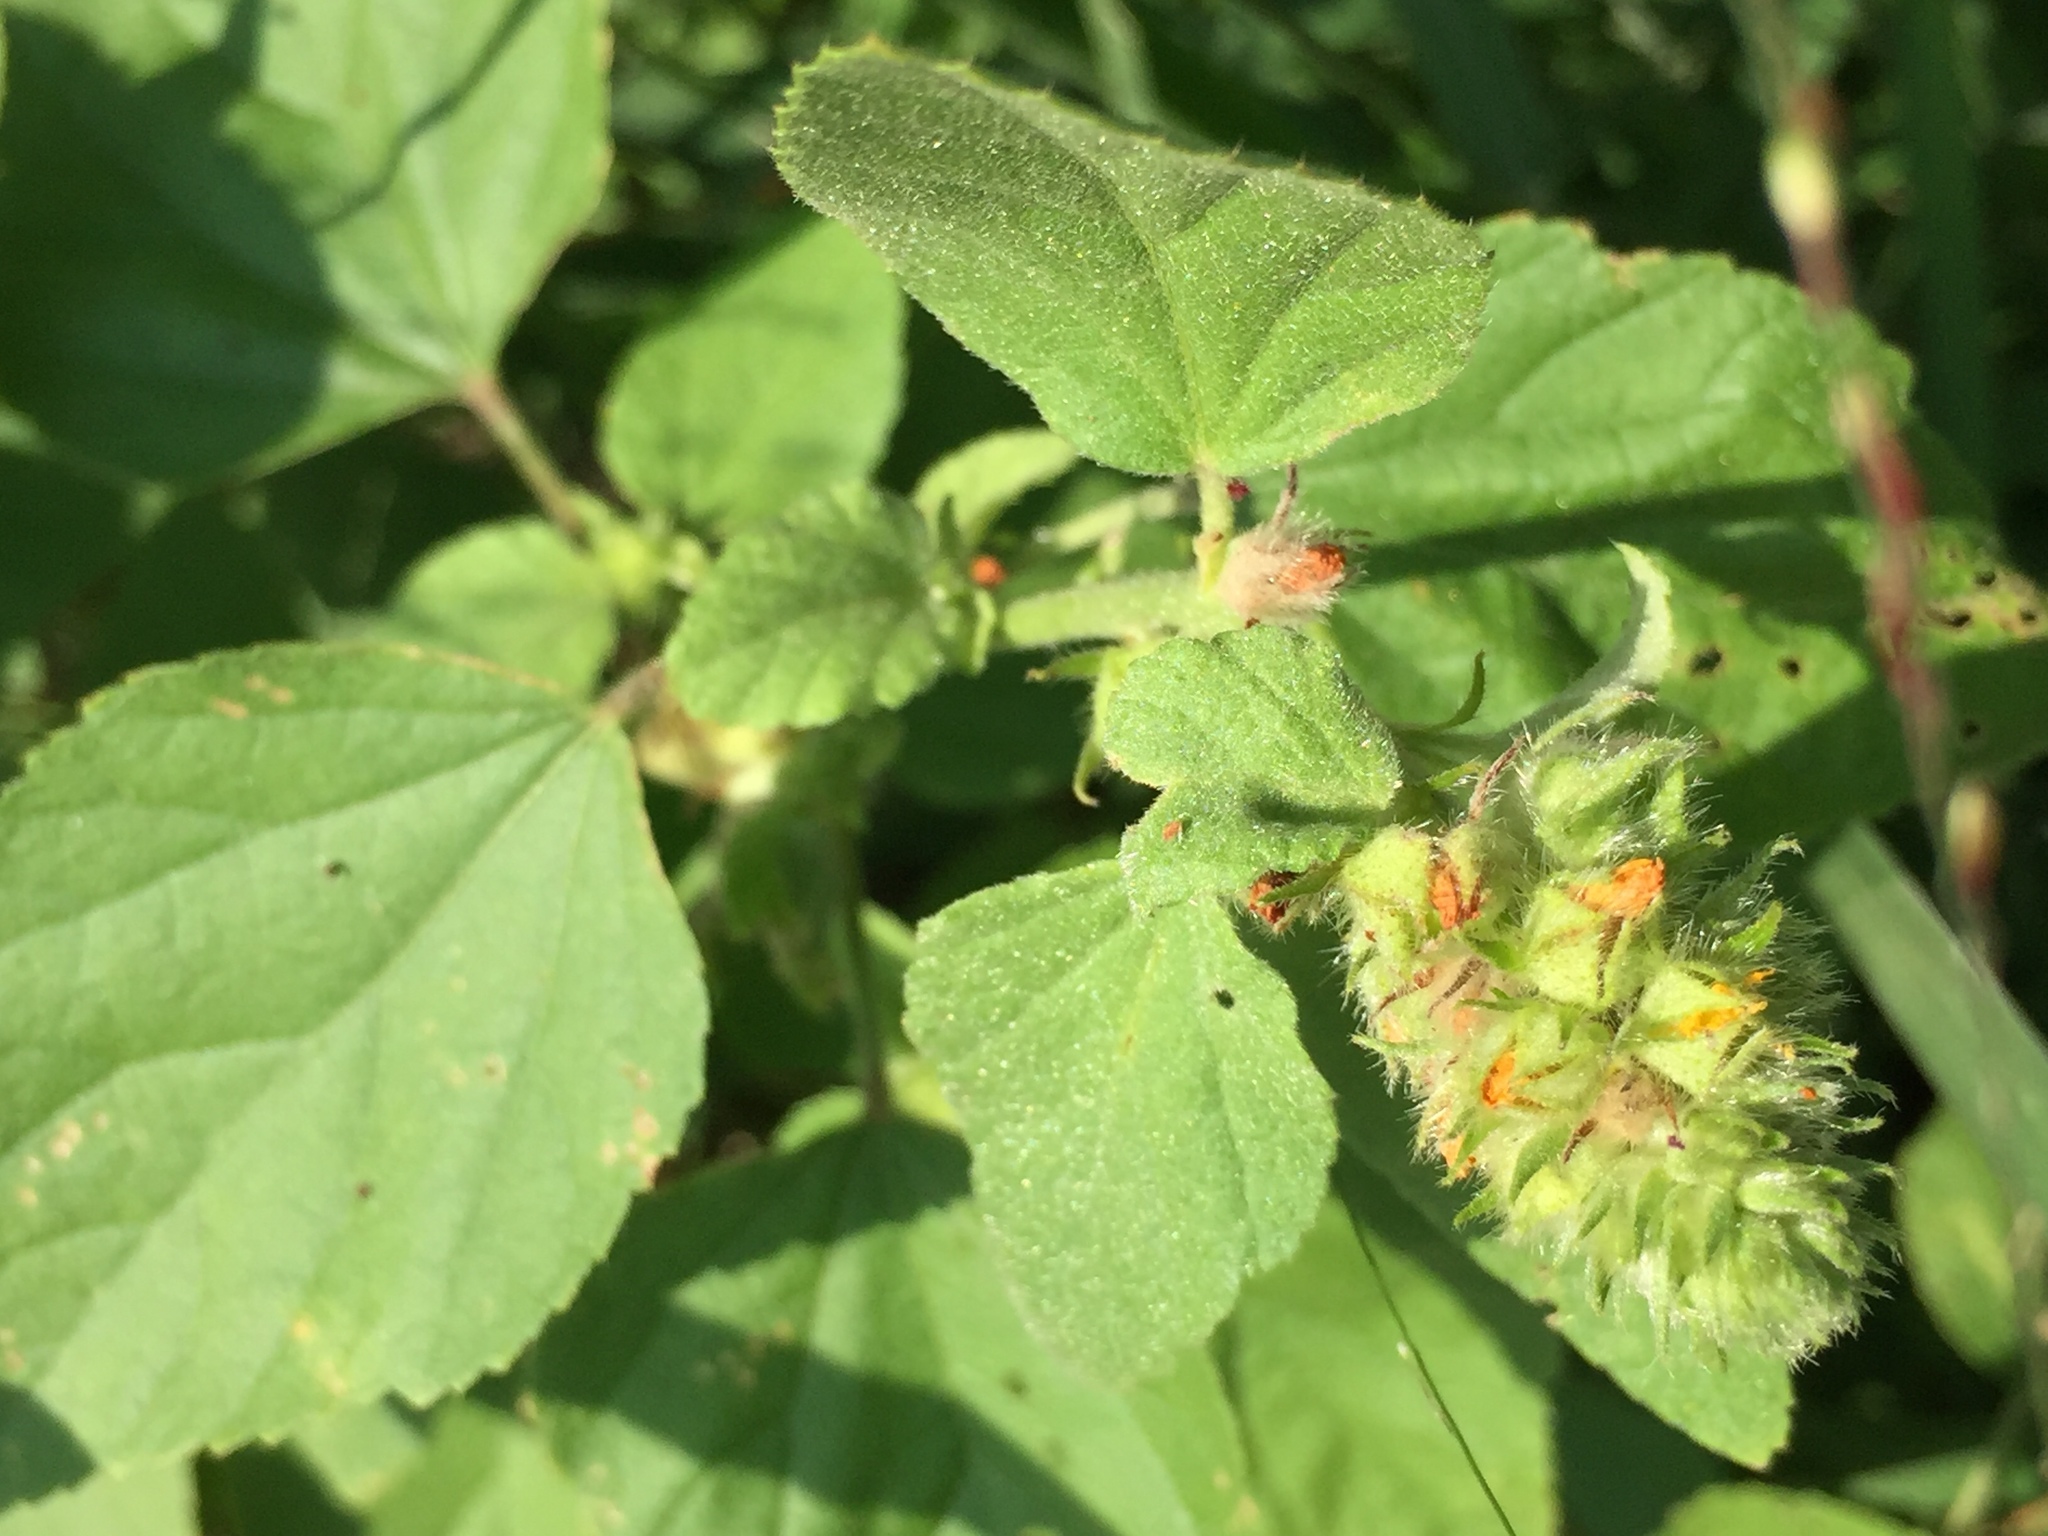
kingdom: Plantae
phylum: Tracheophyta
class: Magnoliopsida
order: Malvales
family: Malvaceae
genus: Malvastrum
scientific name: Malvastrum americanum
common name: Spiked malvastrum
